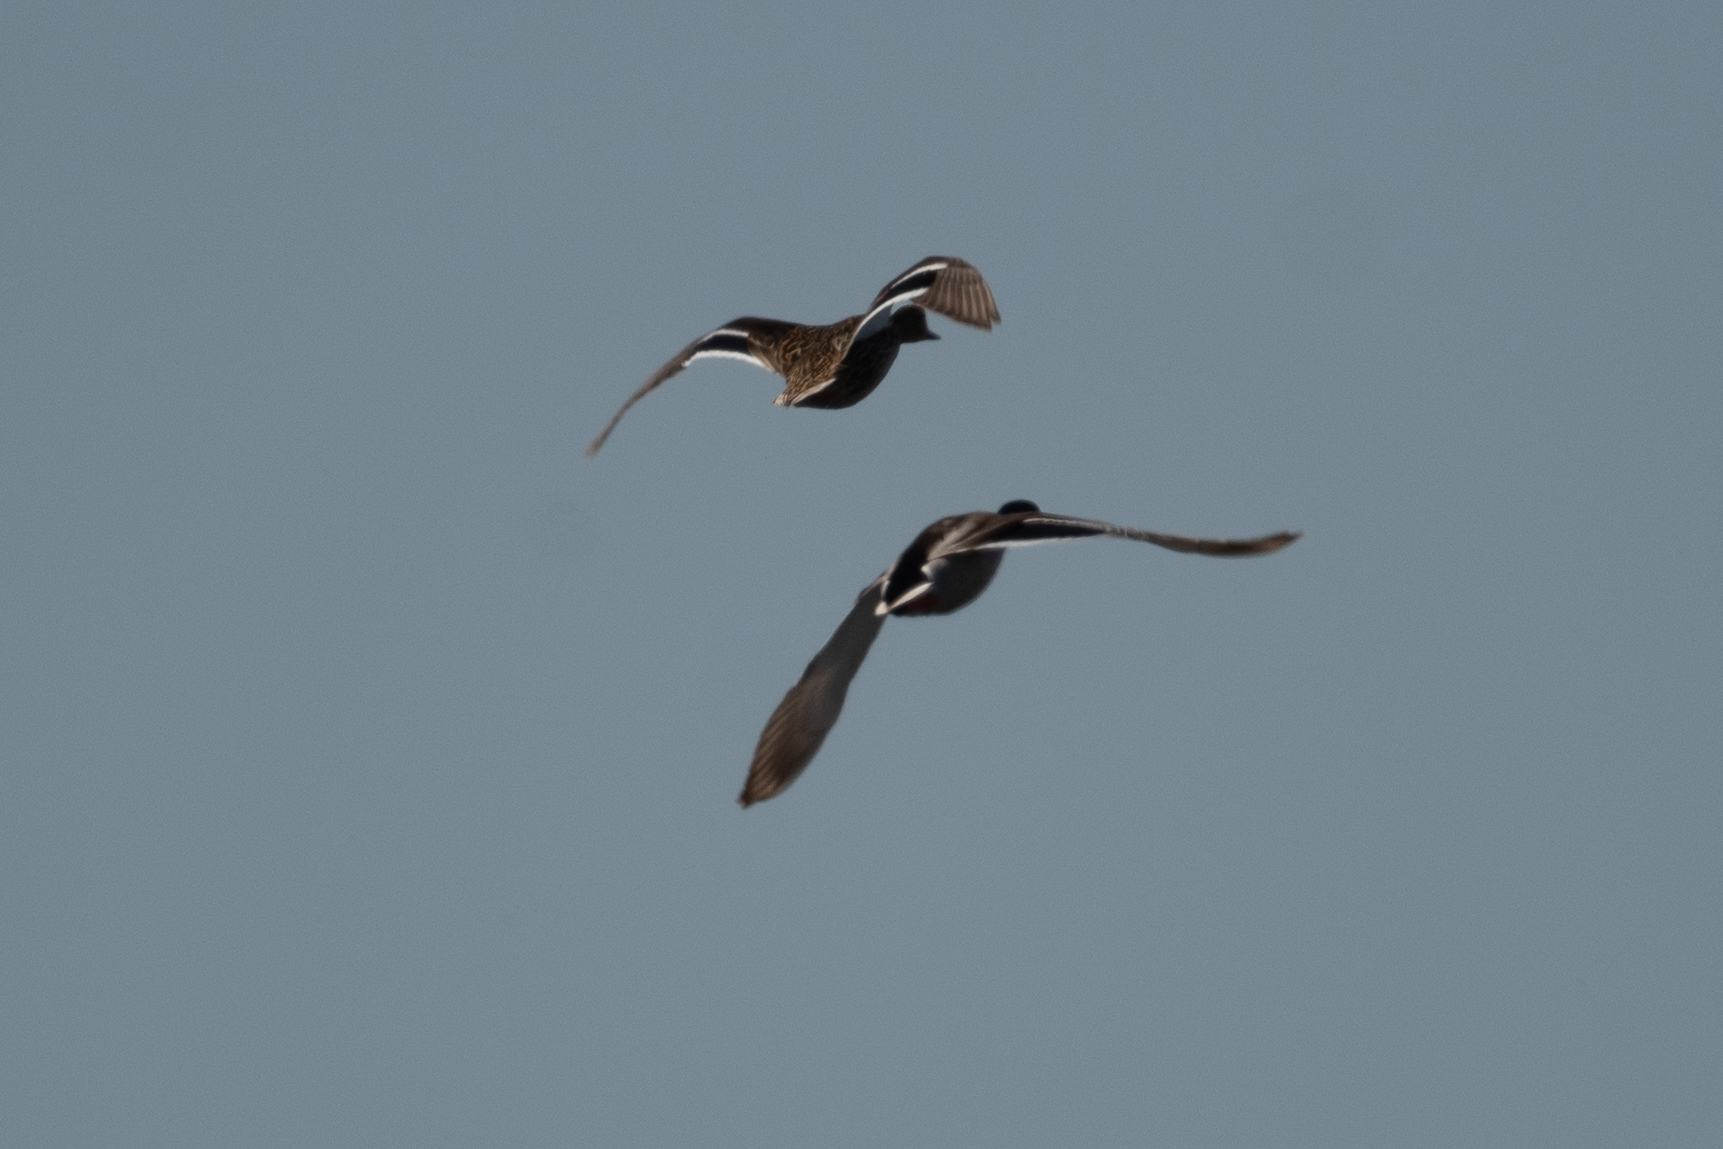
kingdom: Animalia
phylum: Chordata
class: Aves
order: Anseriformes
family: Anatidae
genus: Anas
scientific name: Anas platyrhynchos
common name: Mallard
